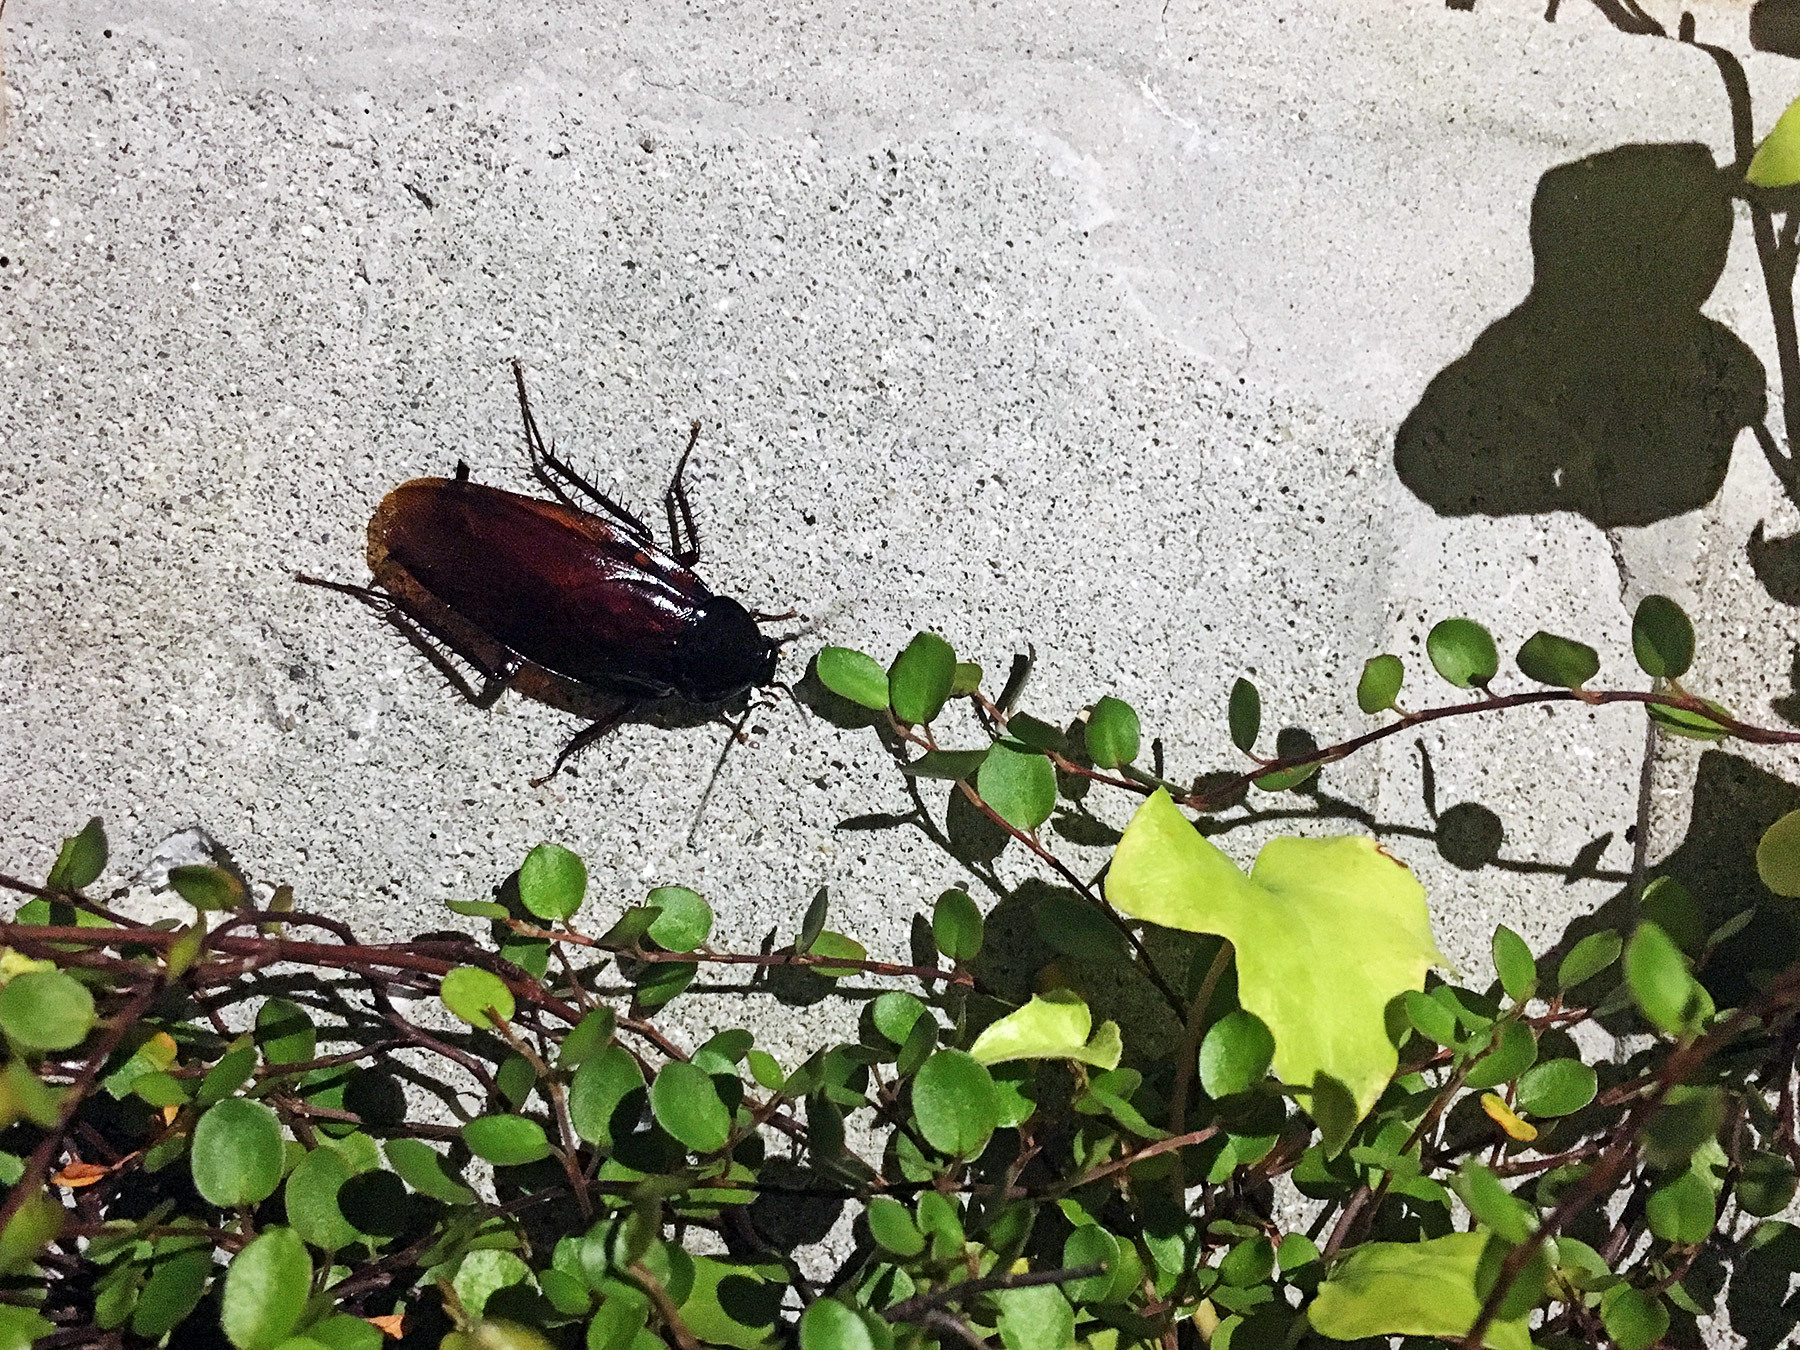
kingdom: Animalia
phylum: Arthropoda
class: Insecta
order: Blattodea
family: Blattidae
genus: Periplaneta
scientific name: Periplaneta fuliginosa
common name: Smokeybrown cockroad
